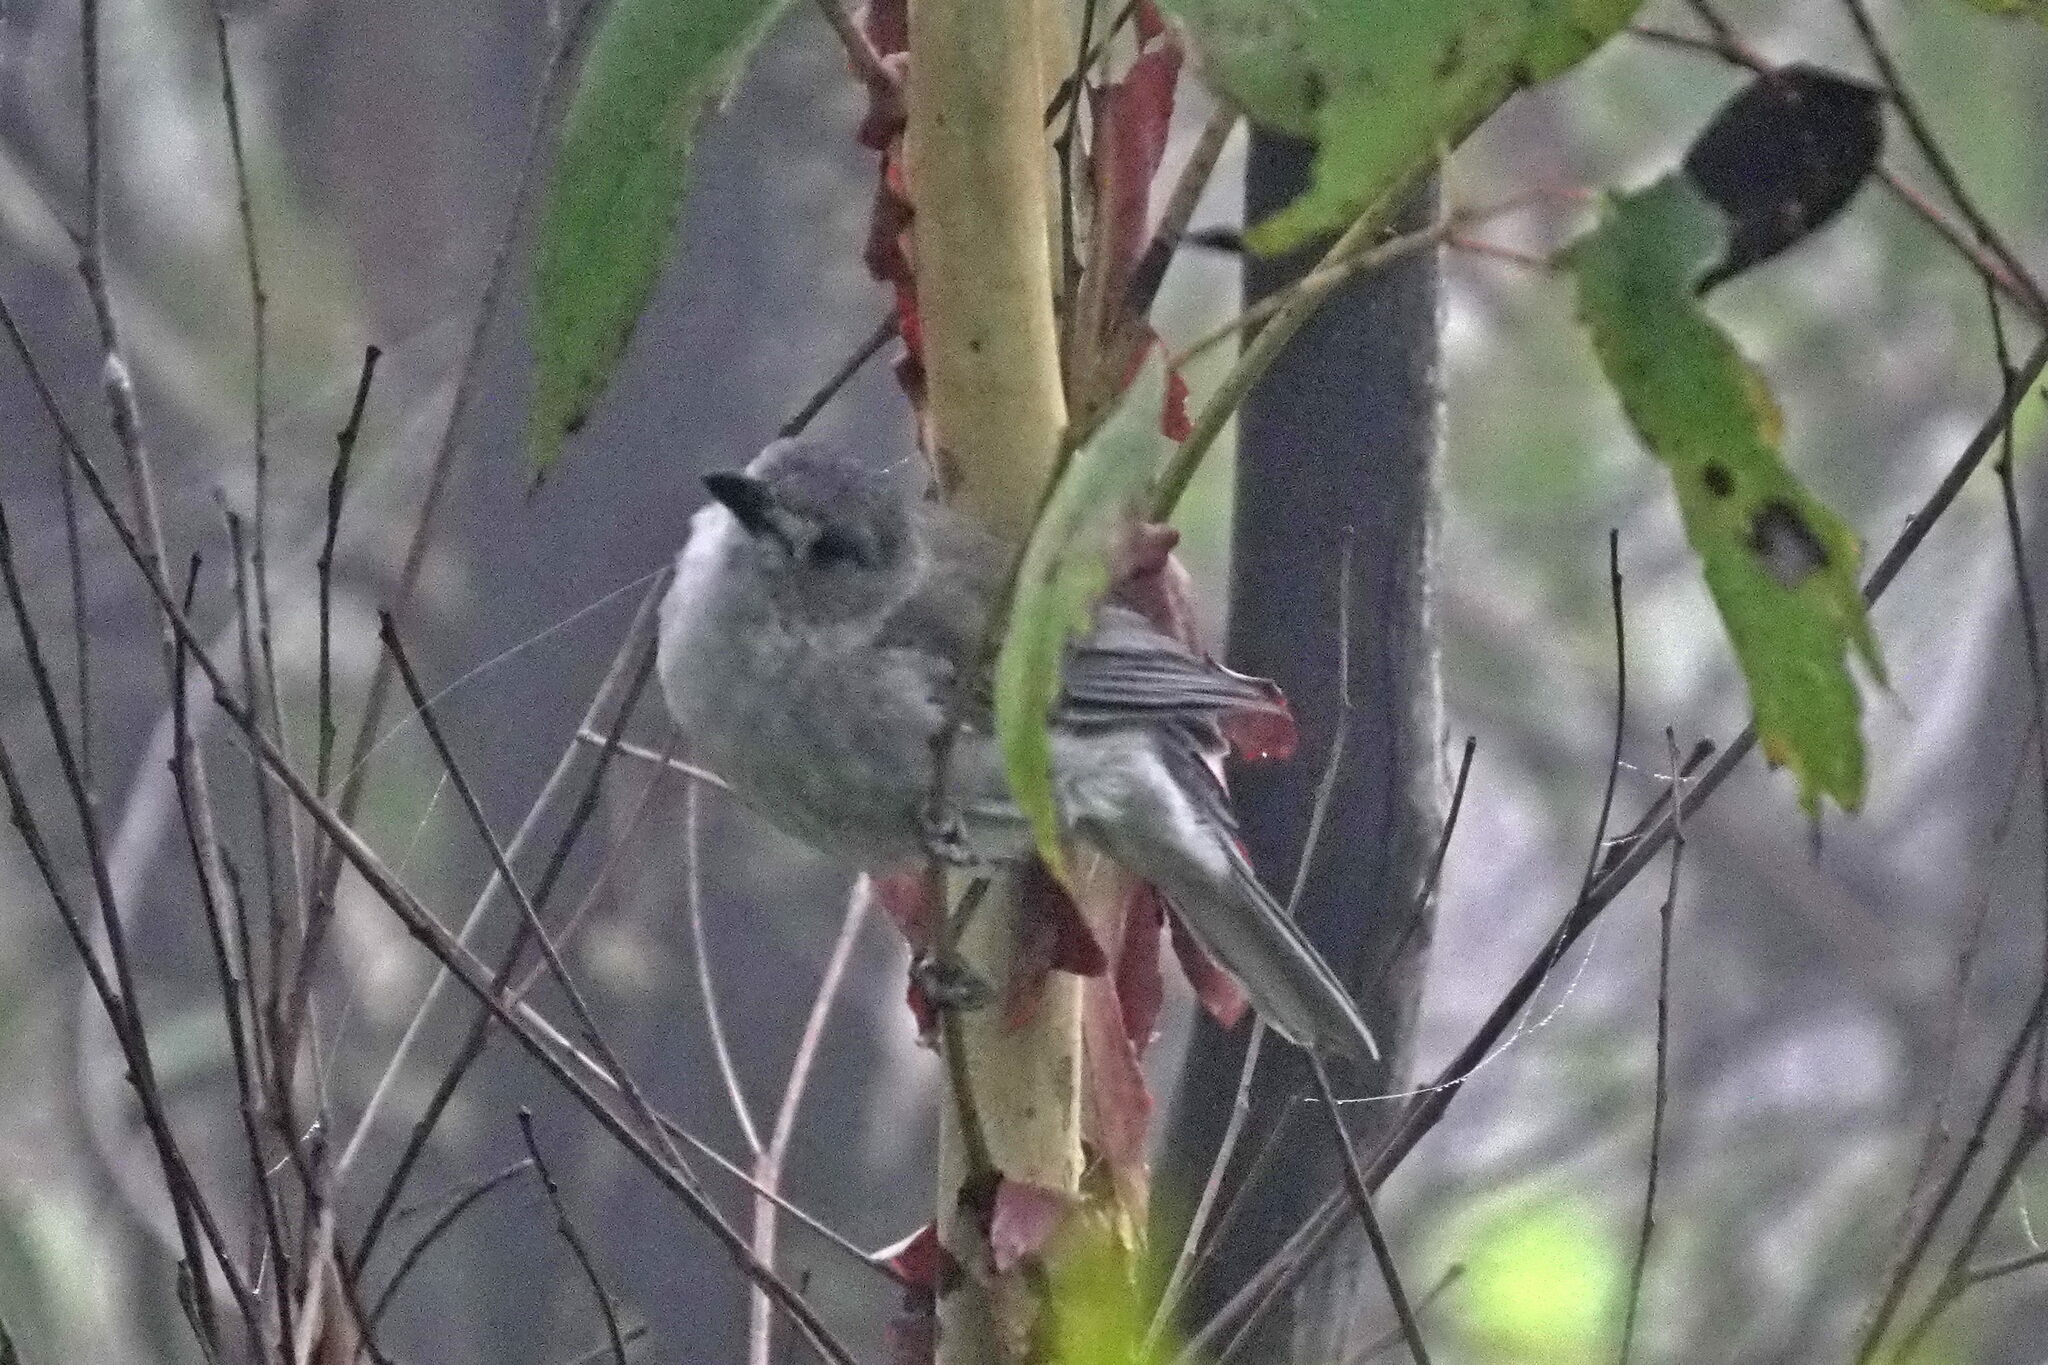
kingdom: Animalia
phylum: Chordata
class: Aves
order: Passeriformes
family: Pachycephalidae
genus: Colluricincla
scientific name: Colluricincla harmonica
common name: Grey shrikethrush
